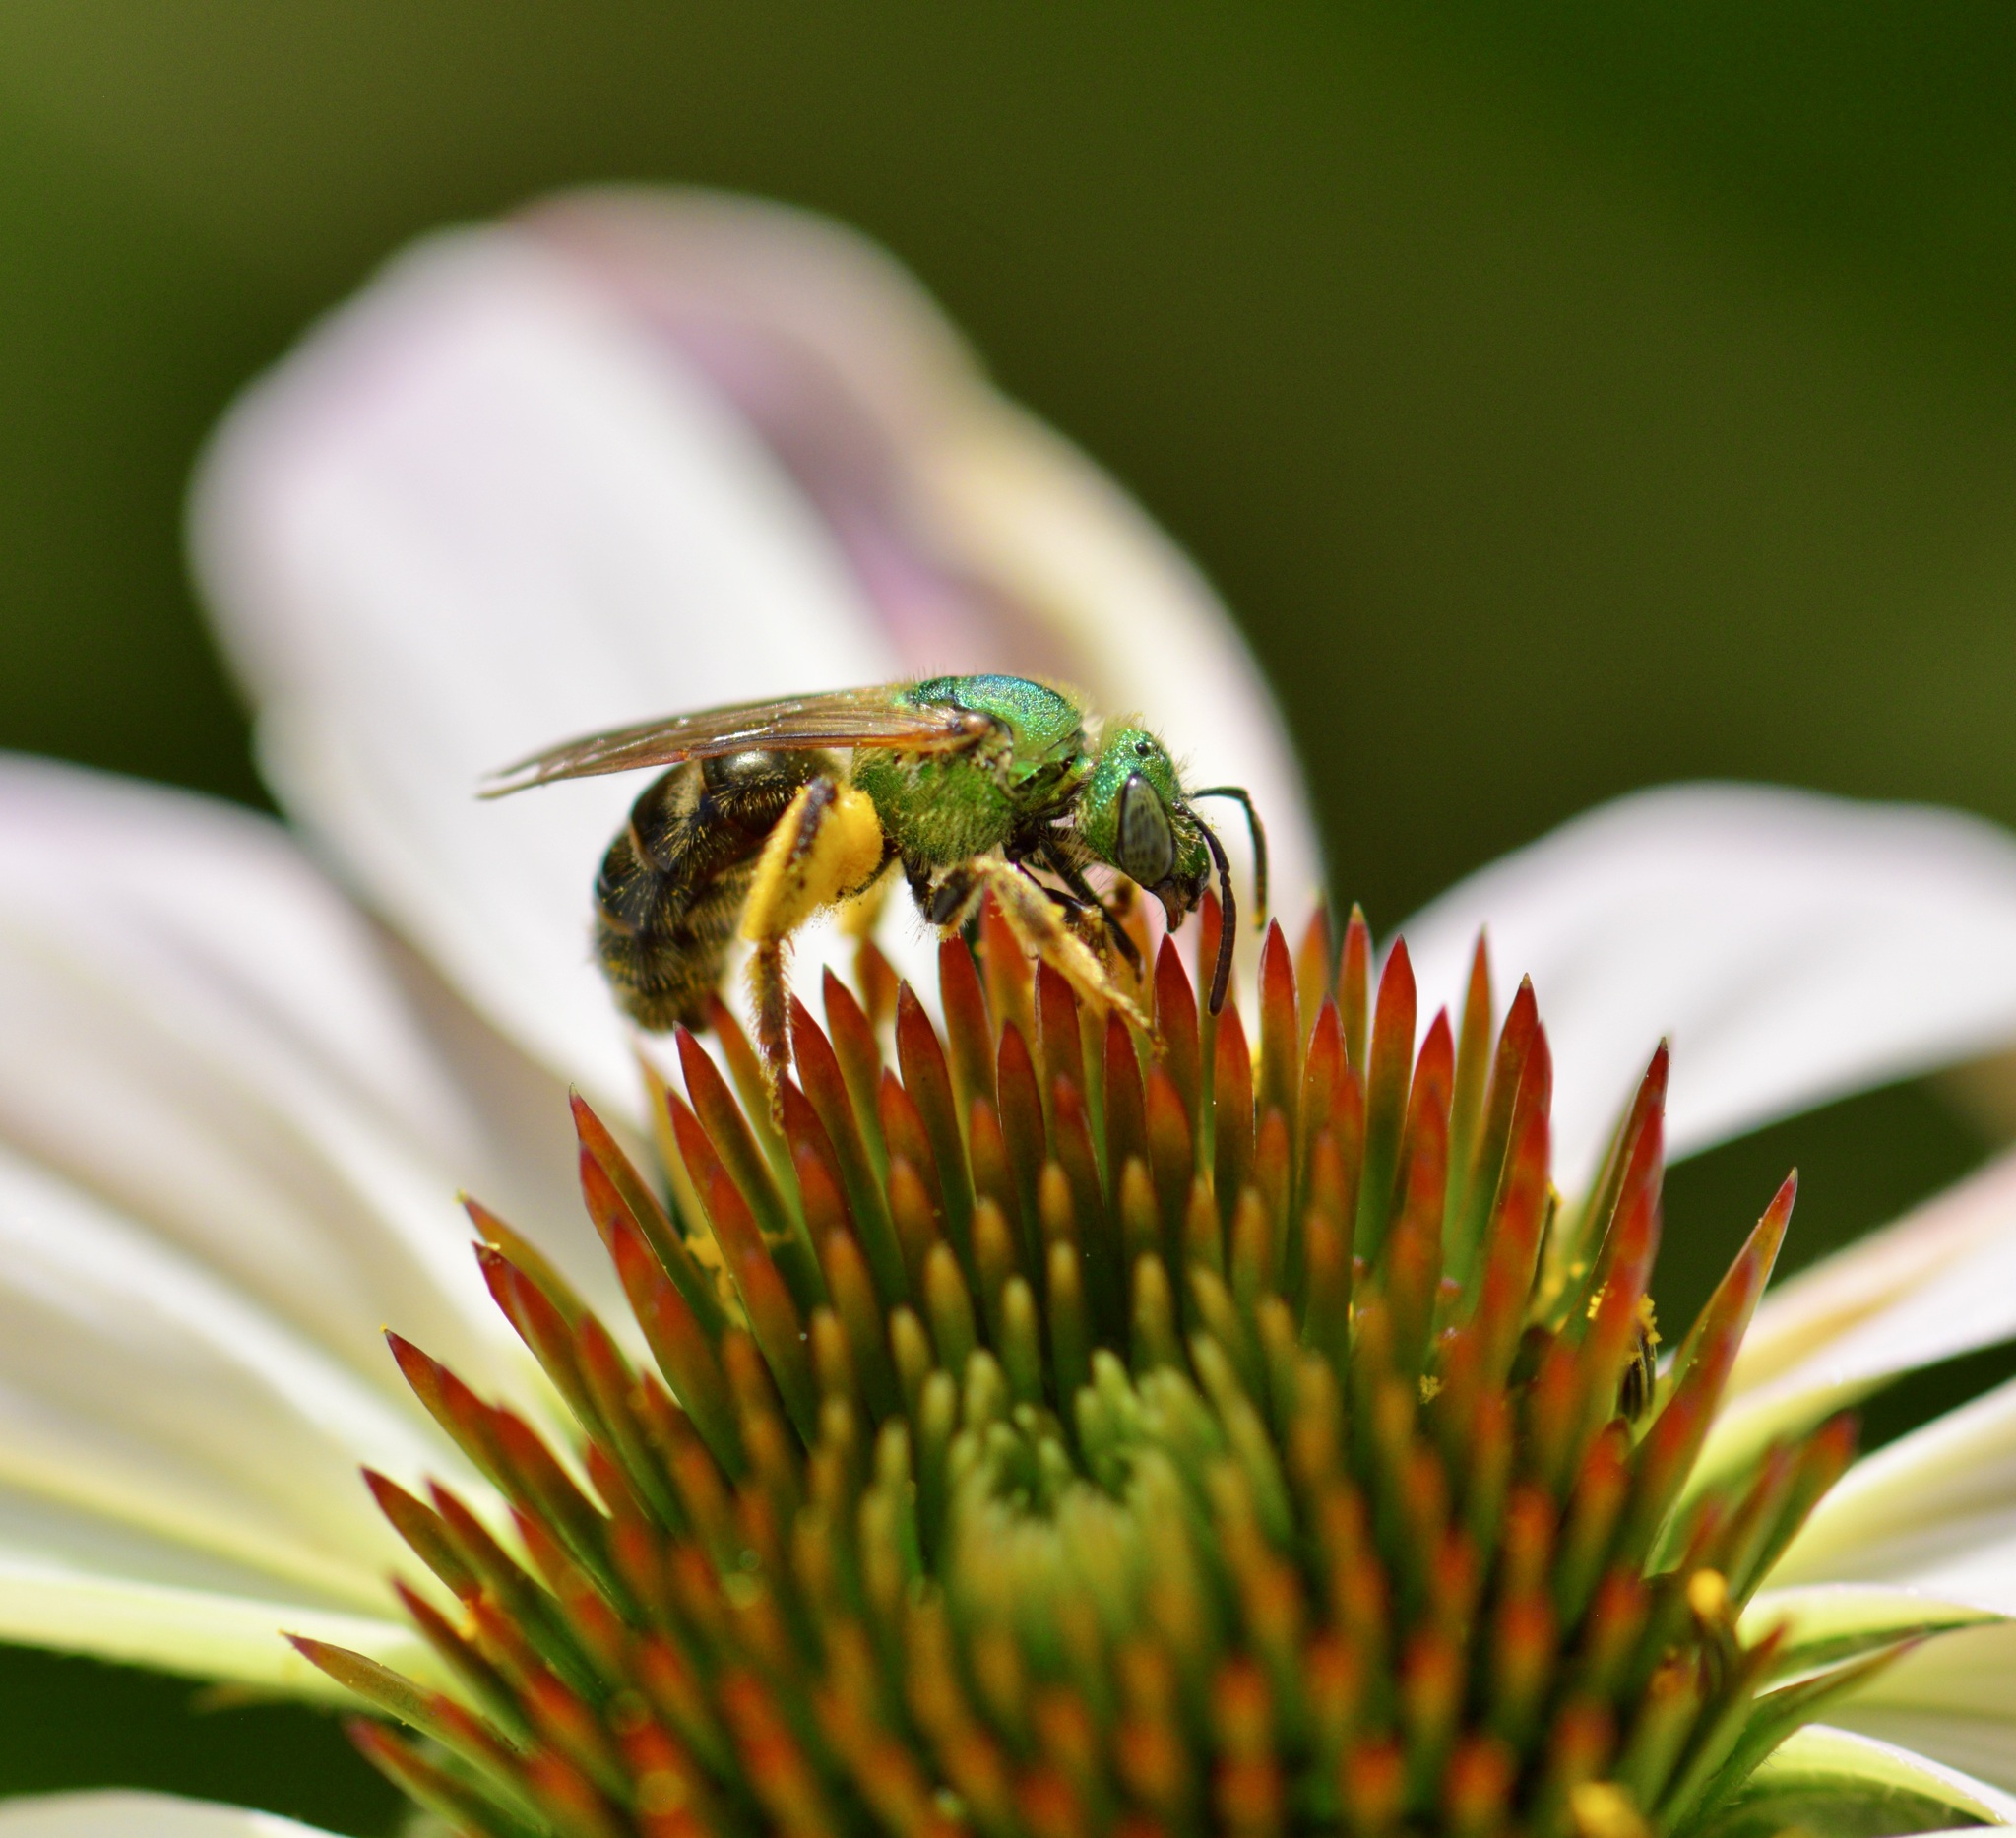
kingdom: Animalia
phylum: Arthropoda
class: Insecta
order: Hymenoptera
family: Halictidae
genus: Agapostemon
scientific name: Agapostemon virescens
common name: Bicolored striped sweat bee
